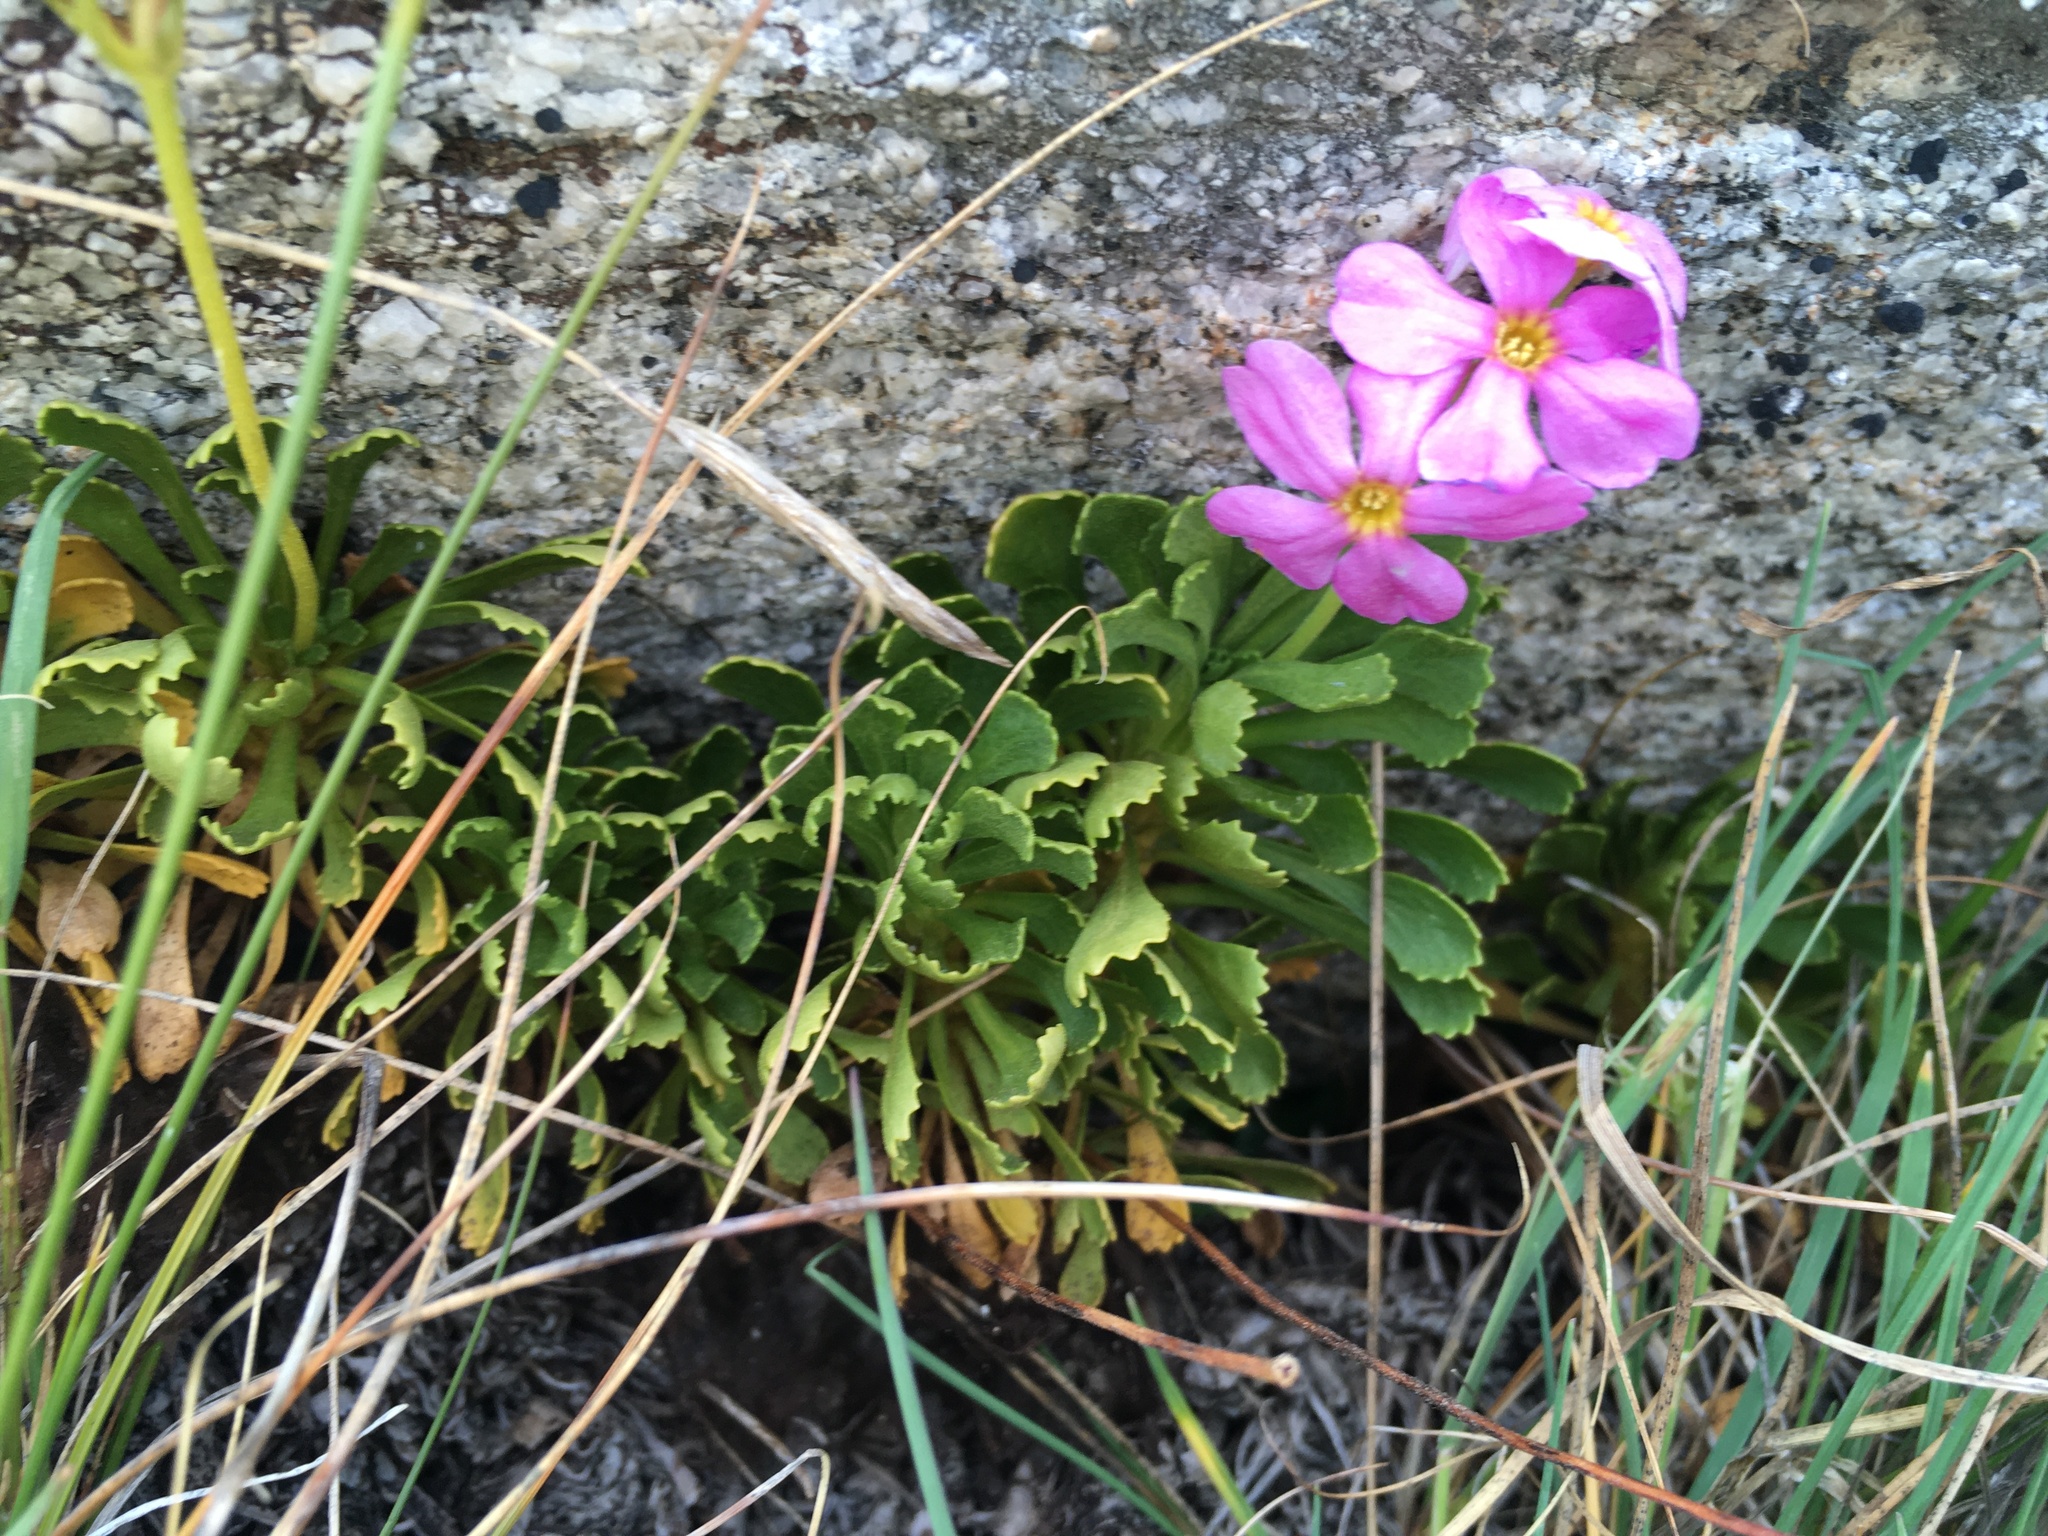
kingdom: Plantae
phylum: Tracheophyta
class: Magnoliopsida
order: Ericales
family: Primulaceae
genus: Primula
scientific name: Primula suffrutescens
